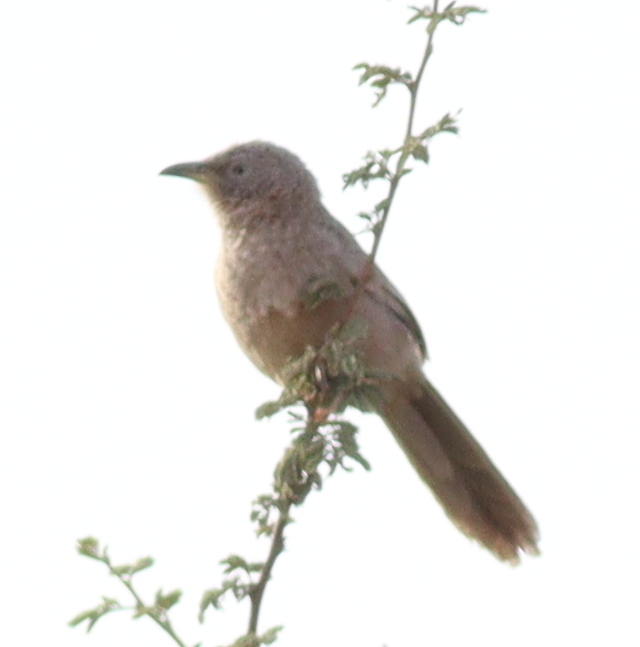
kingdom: Animalia
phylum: Chordata
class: Aves
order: Passeriformes
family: Leiothrichidae
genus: Turdoides
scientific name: Turdoides squamiceps
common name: Arabian babbler
